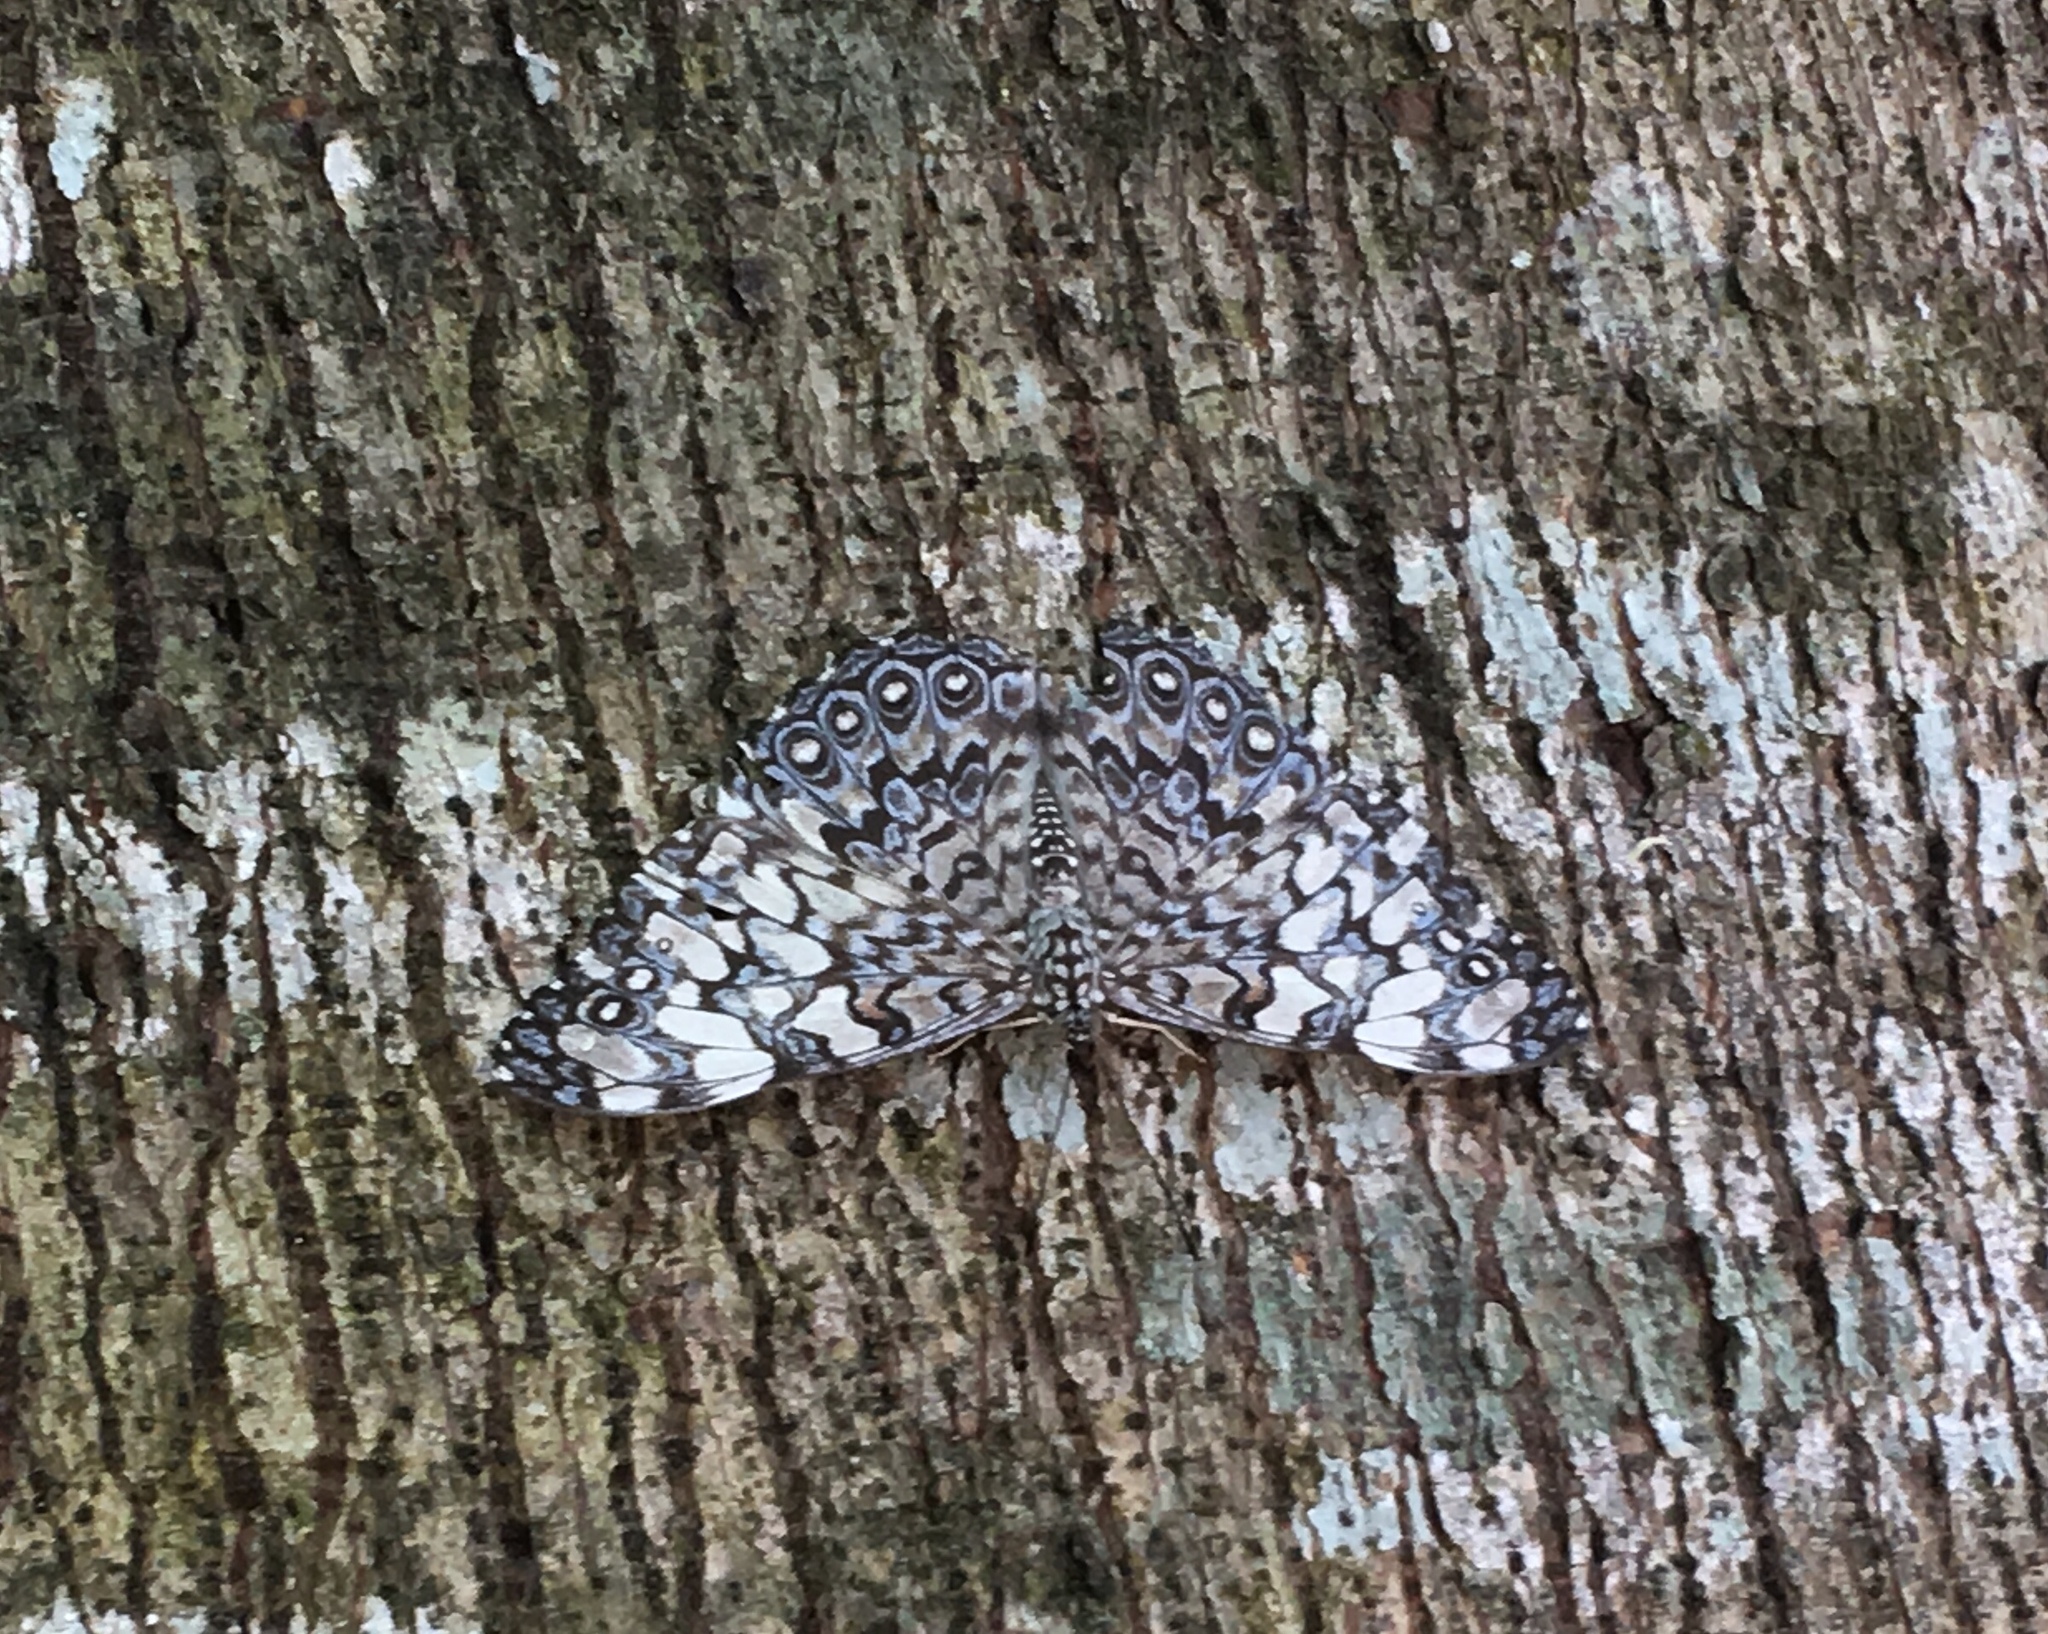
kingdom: Animalia
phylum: Arthropoda
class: Insecta
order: Lepidoptera
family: Nymphalidae
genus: Hamadryas
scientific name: Hamadryas iphthime
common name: Brownish cracker
